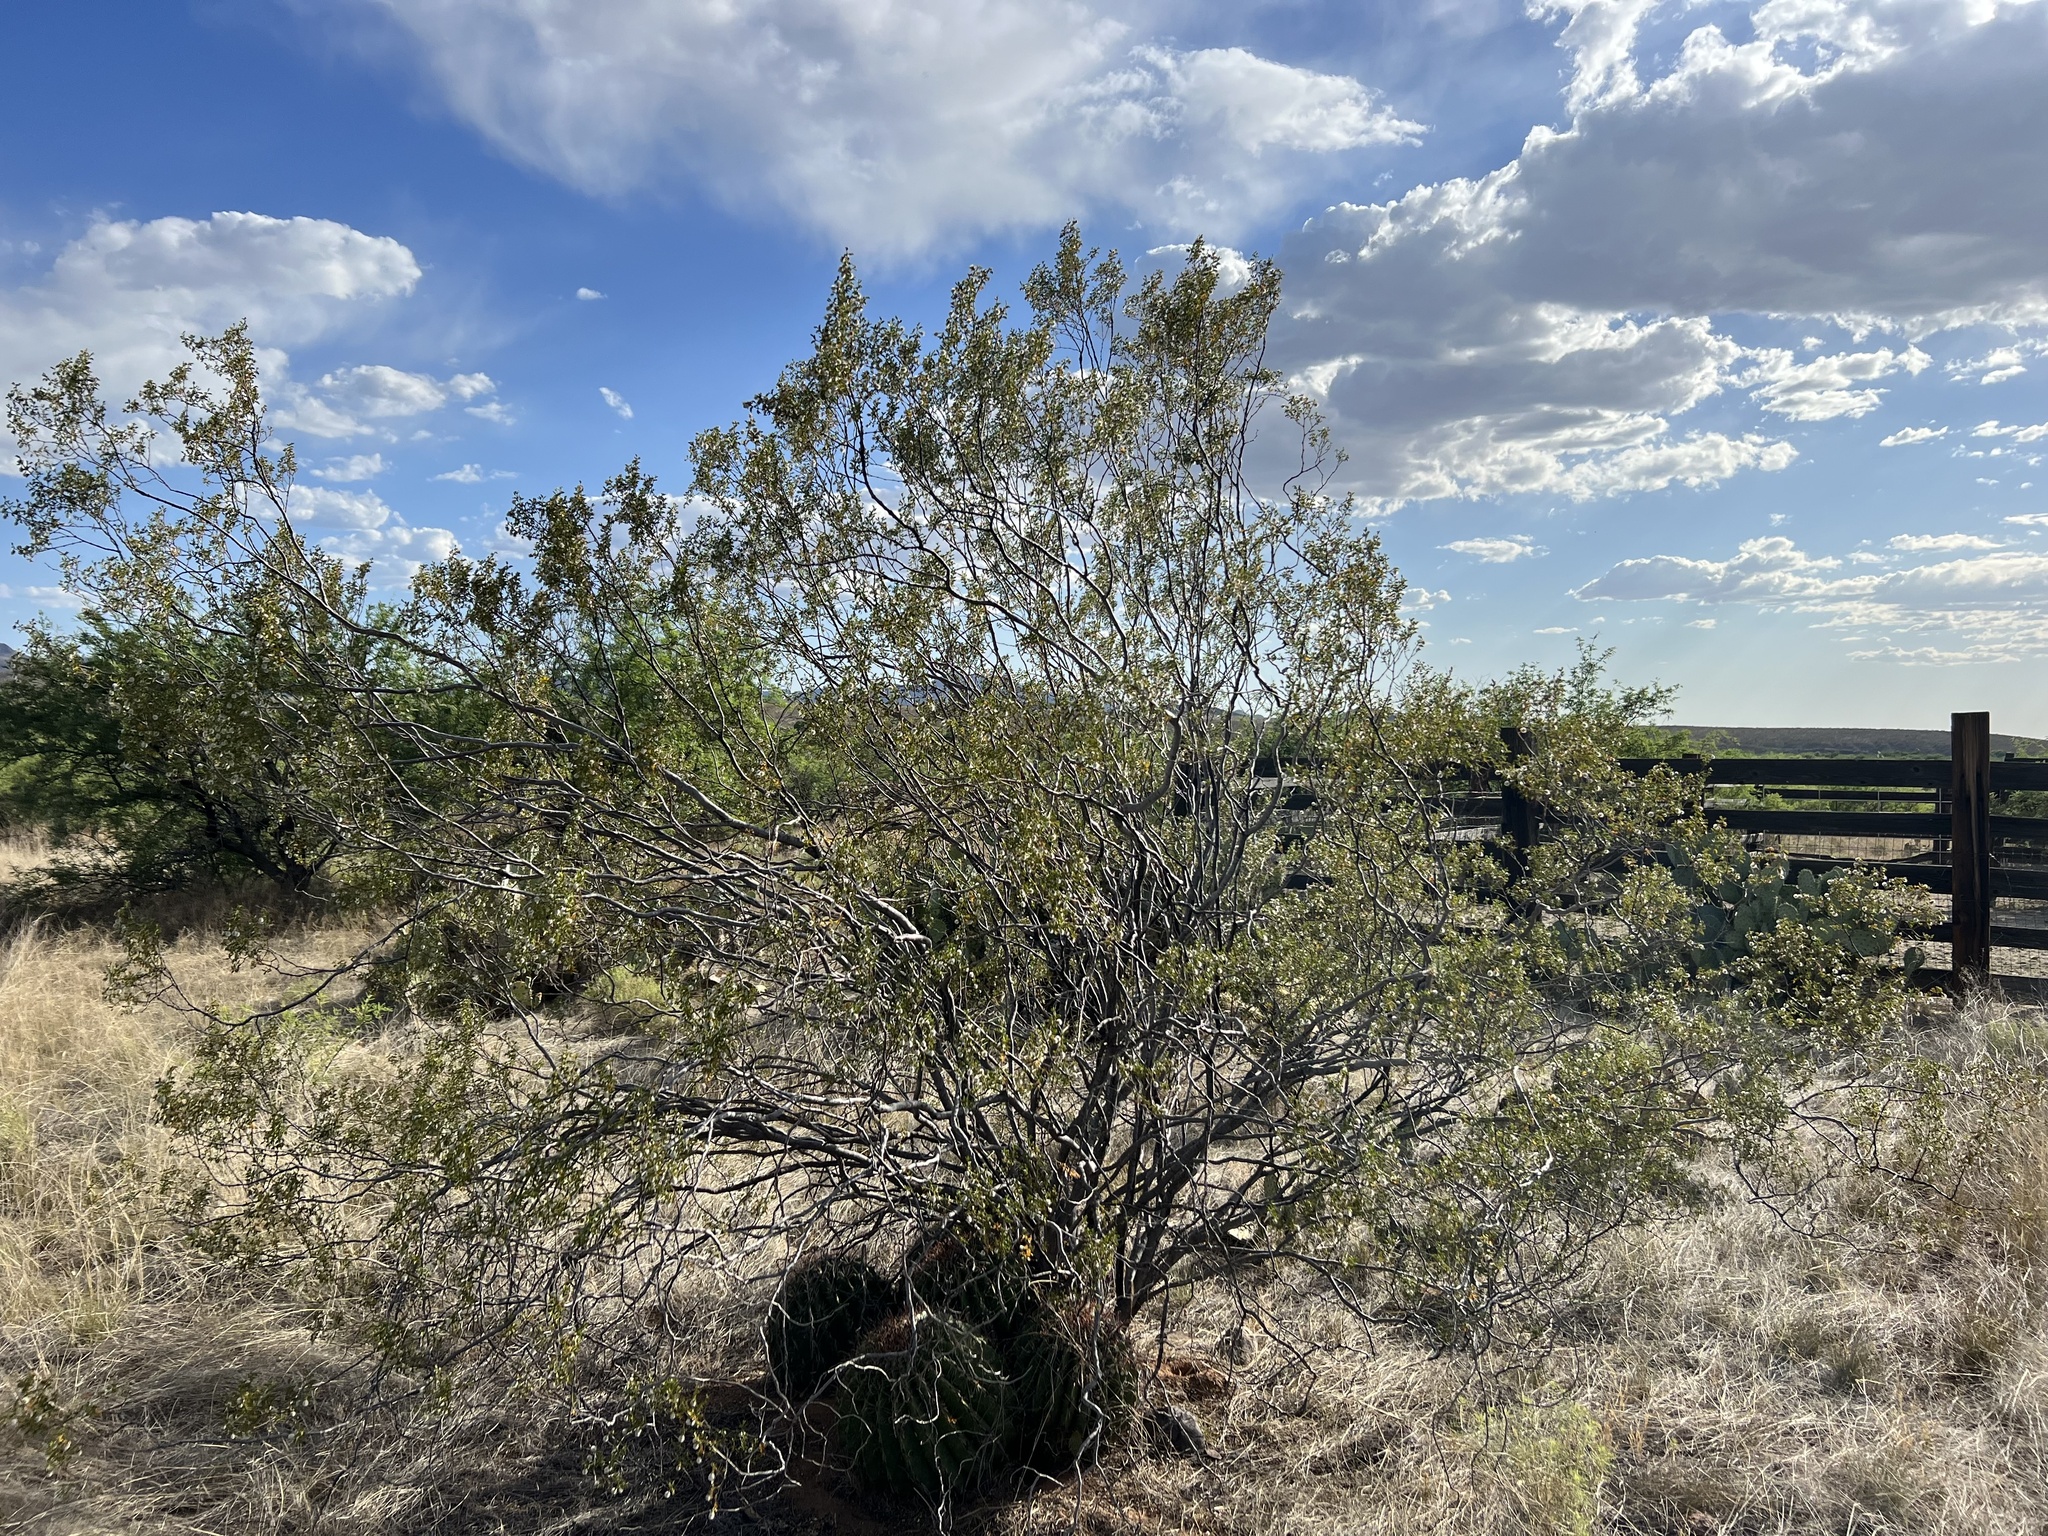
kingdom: Plantae
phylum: Tracheophyta
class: Magnoliopsida
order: Zygophyllales
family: Zygophyllaceae
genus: Larrea
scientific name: Larrea tridentata
